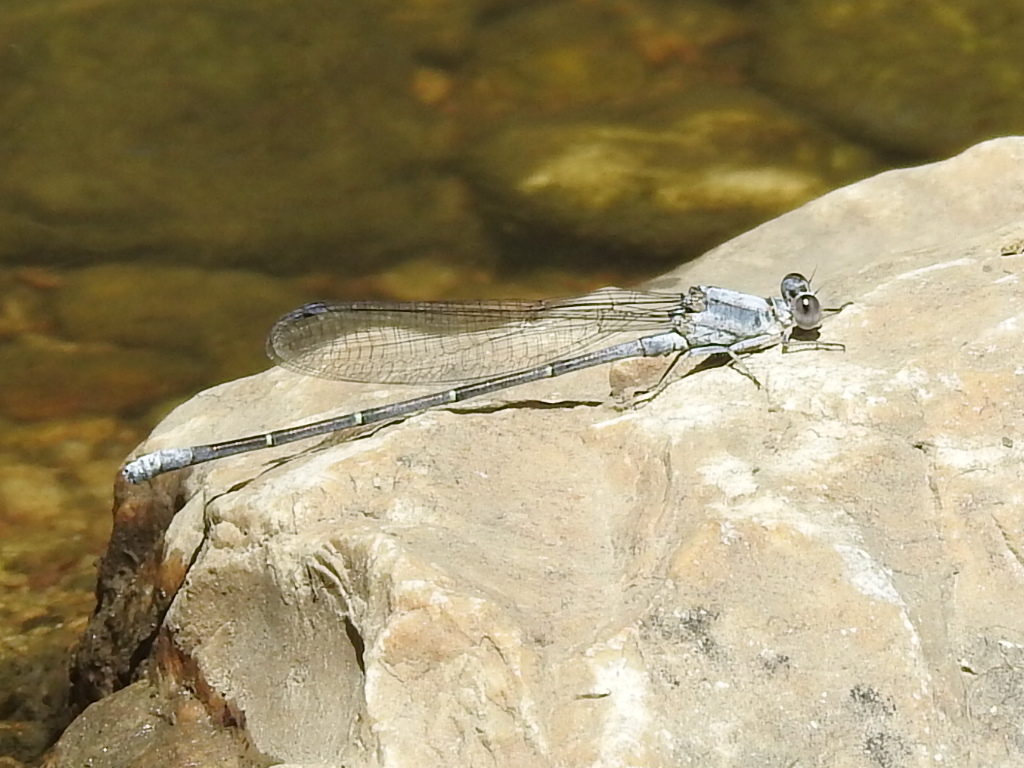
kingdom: Animalia
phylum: Arthropoda
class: Insecta
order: Odonata
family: Coenagrionidae
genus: Argia
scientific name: Argia moesta
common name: Powdered dancer
